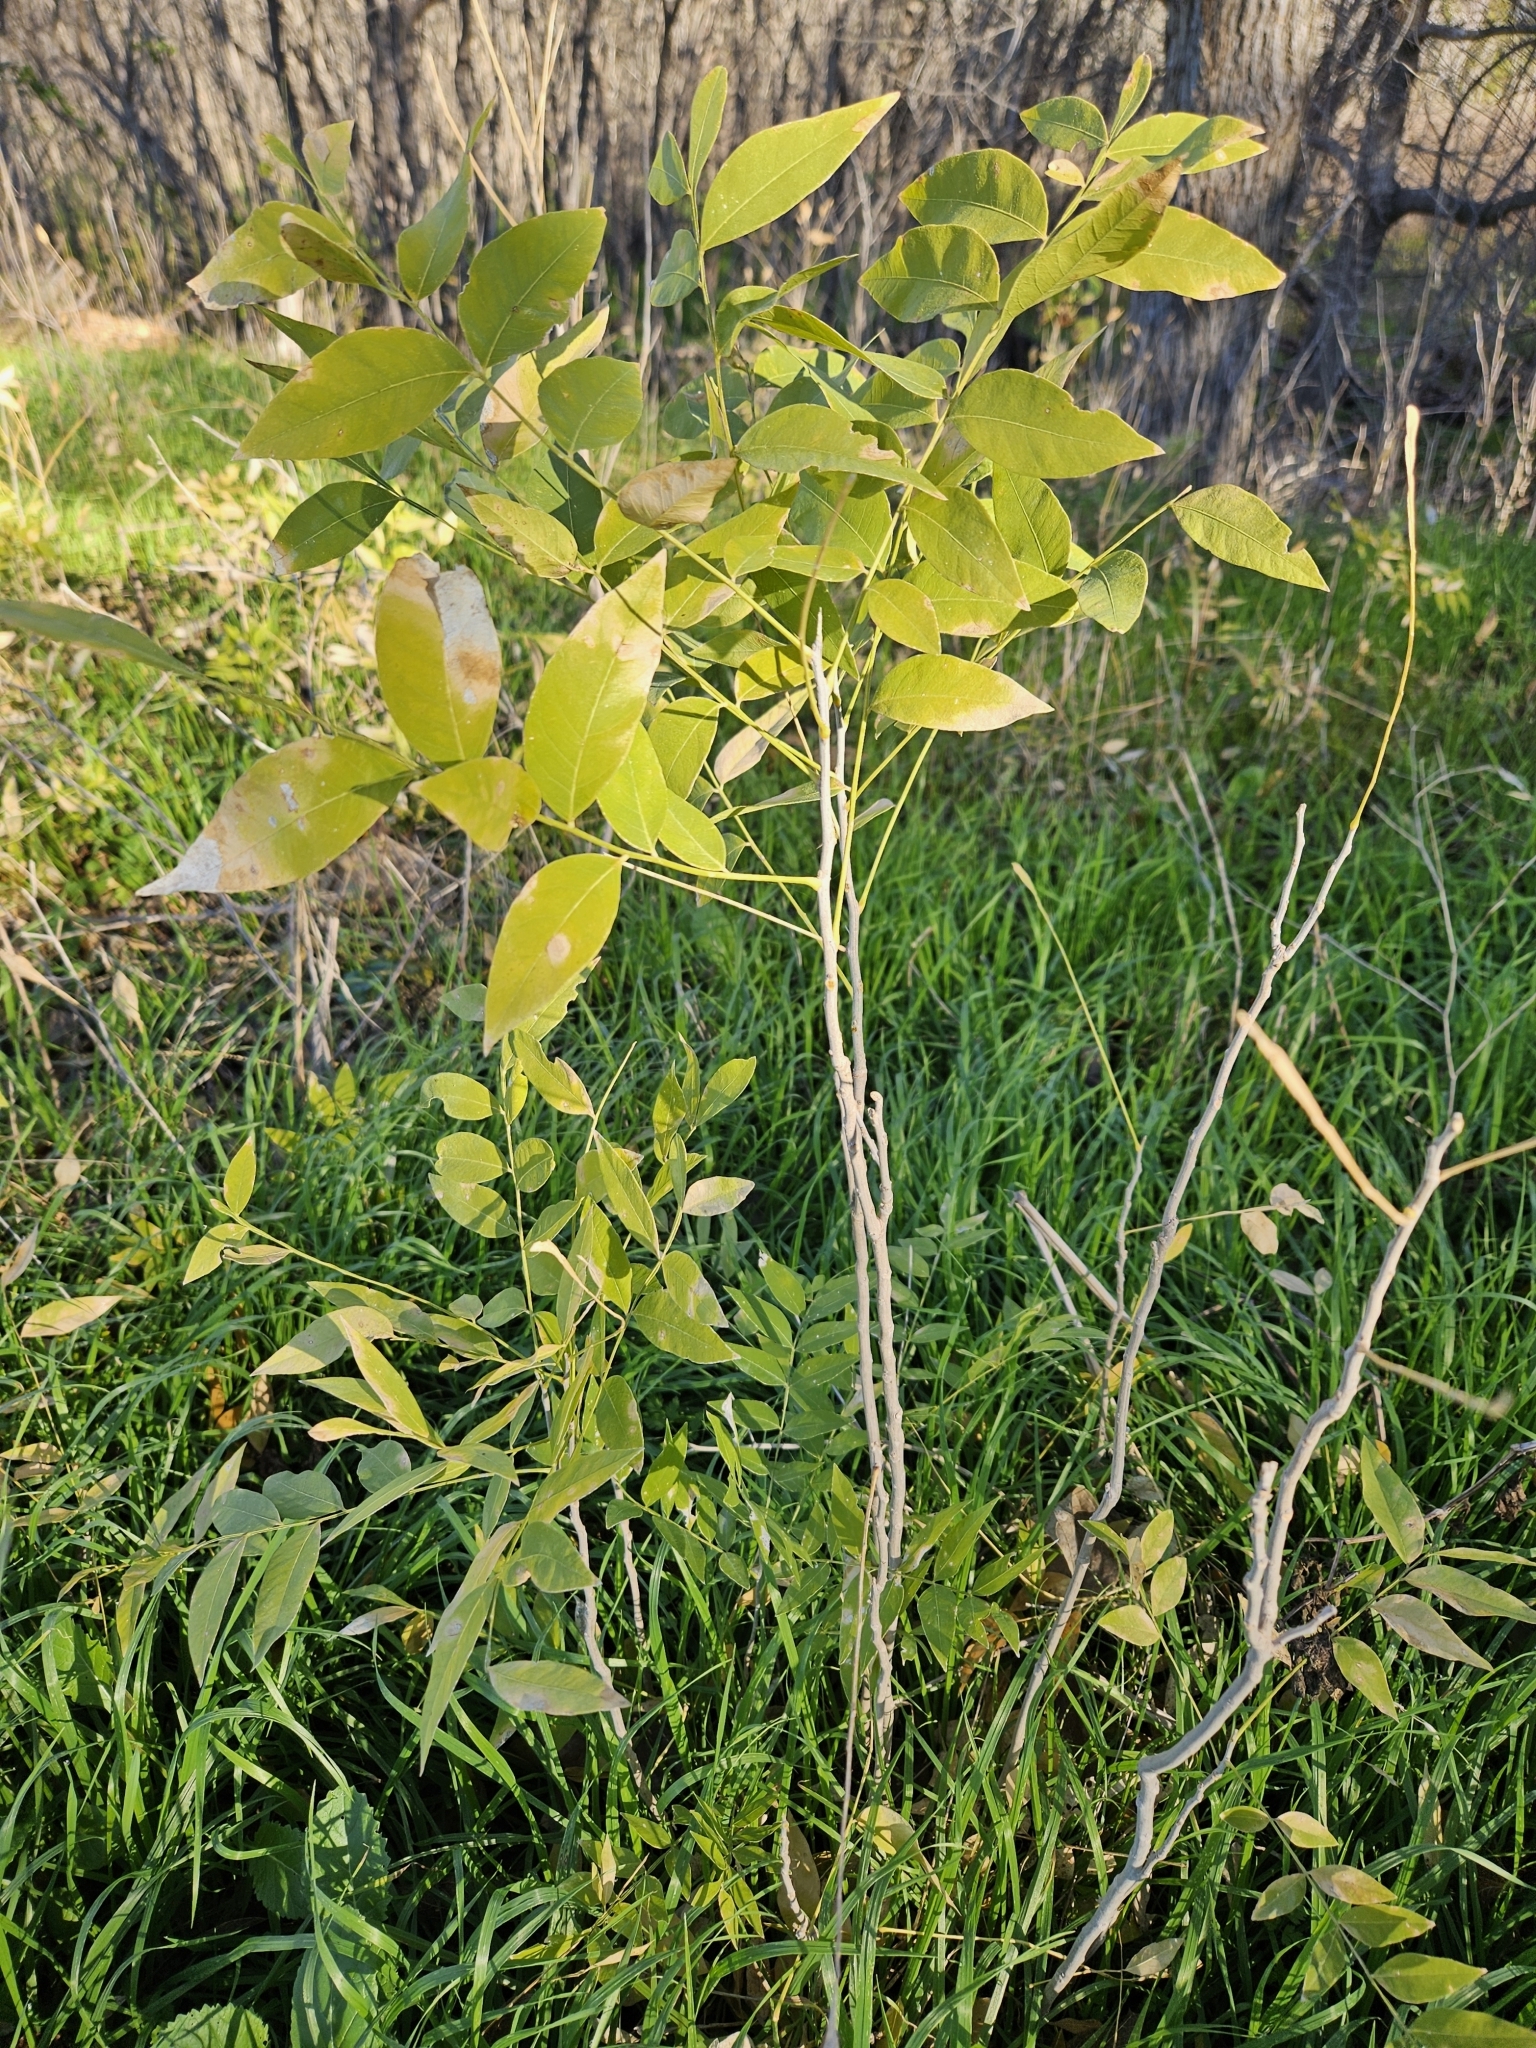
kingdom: Plantae
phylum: Tracheophyta
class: Magnoliopsida
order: Sapindales
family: Sapindaceae
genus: Sapindus
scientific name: Sapindus drummondii
